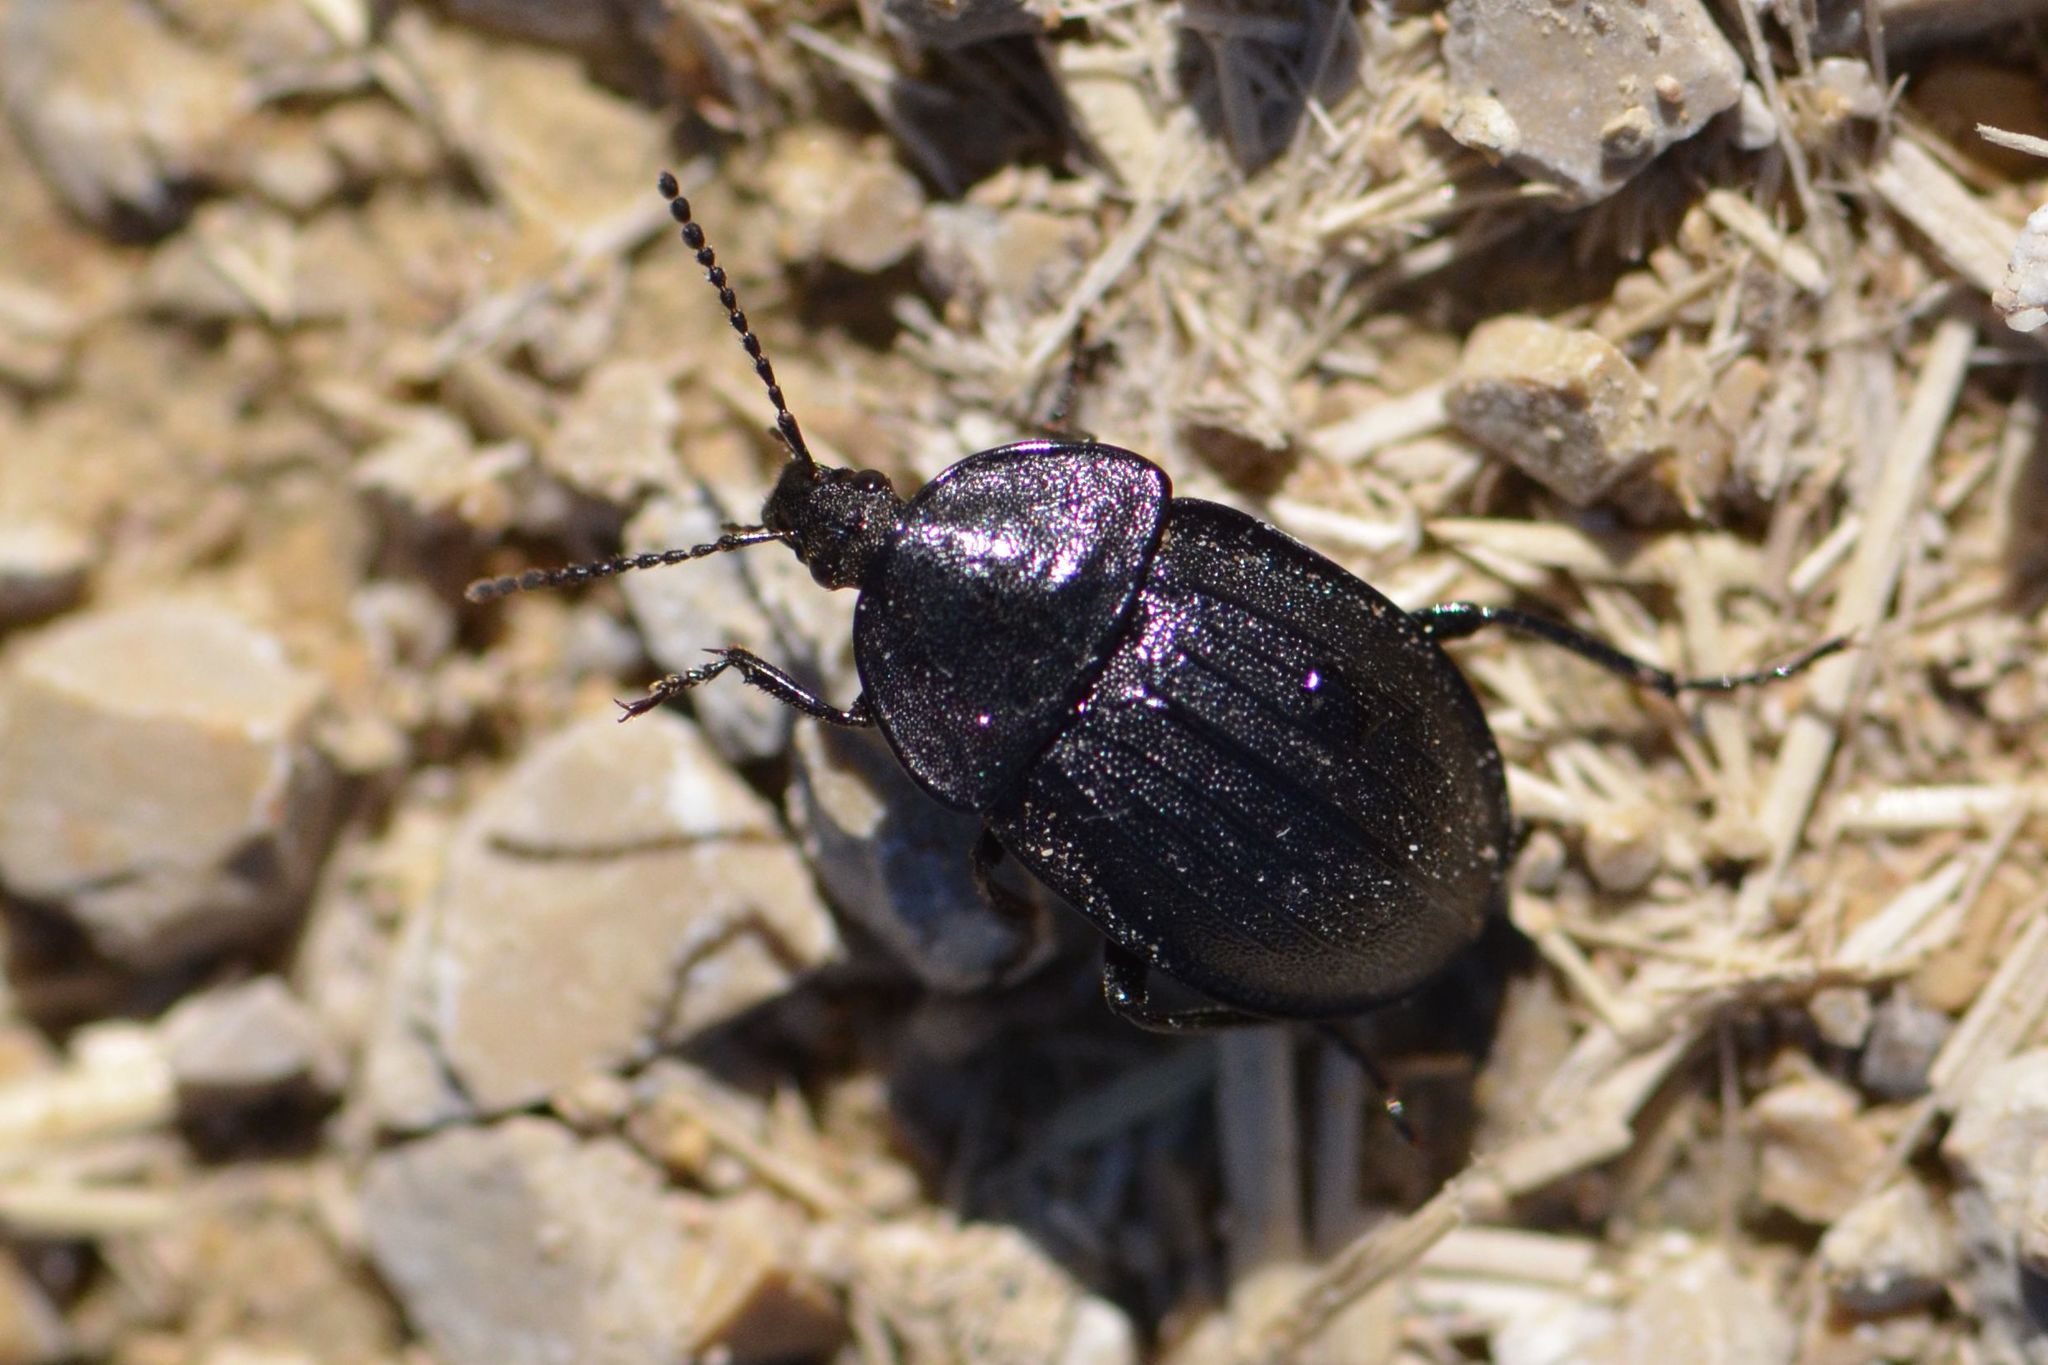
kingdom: Animalia
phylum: Arthropoda
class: Insecta
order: Coleoptera
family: Staphylinidae
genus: Silpha
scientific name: Silpha atrata
